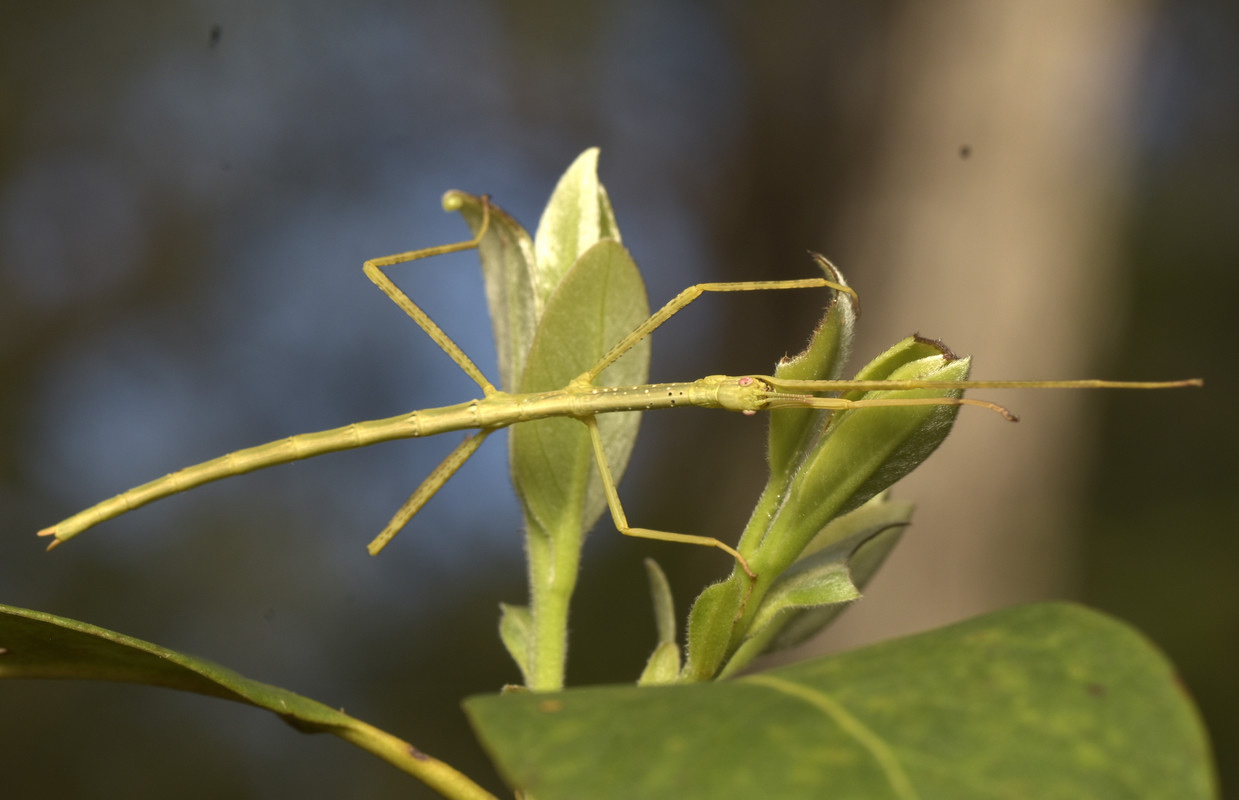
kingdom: Animalia
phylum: Arthropoda
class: Insecta
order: Phasmida
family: Phasmatidae
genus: Anchiale
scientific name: Anchiale austrotessulata
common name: Tessellated stick-insect
